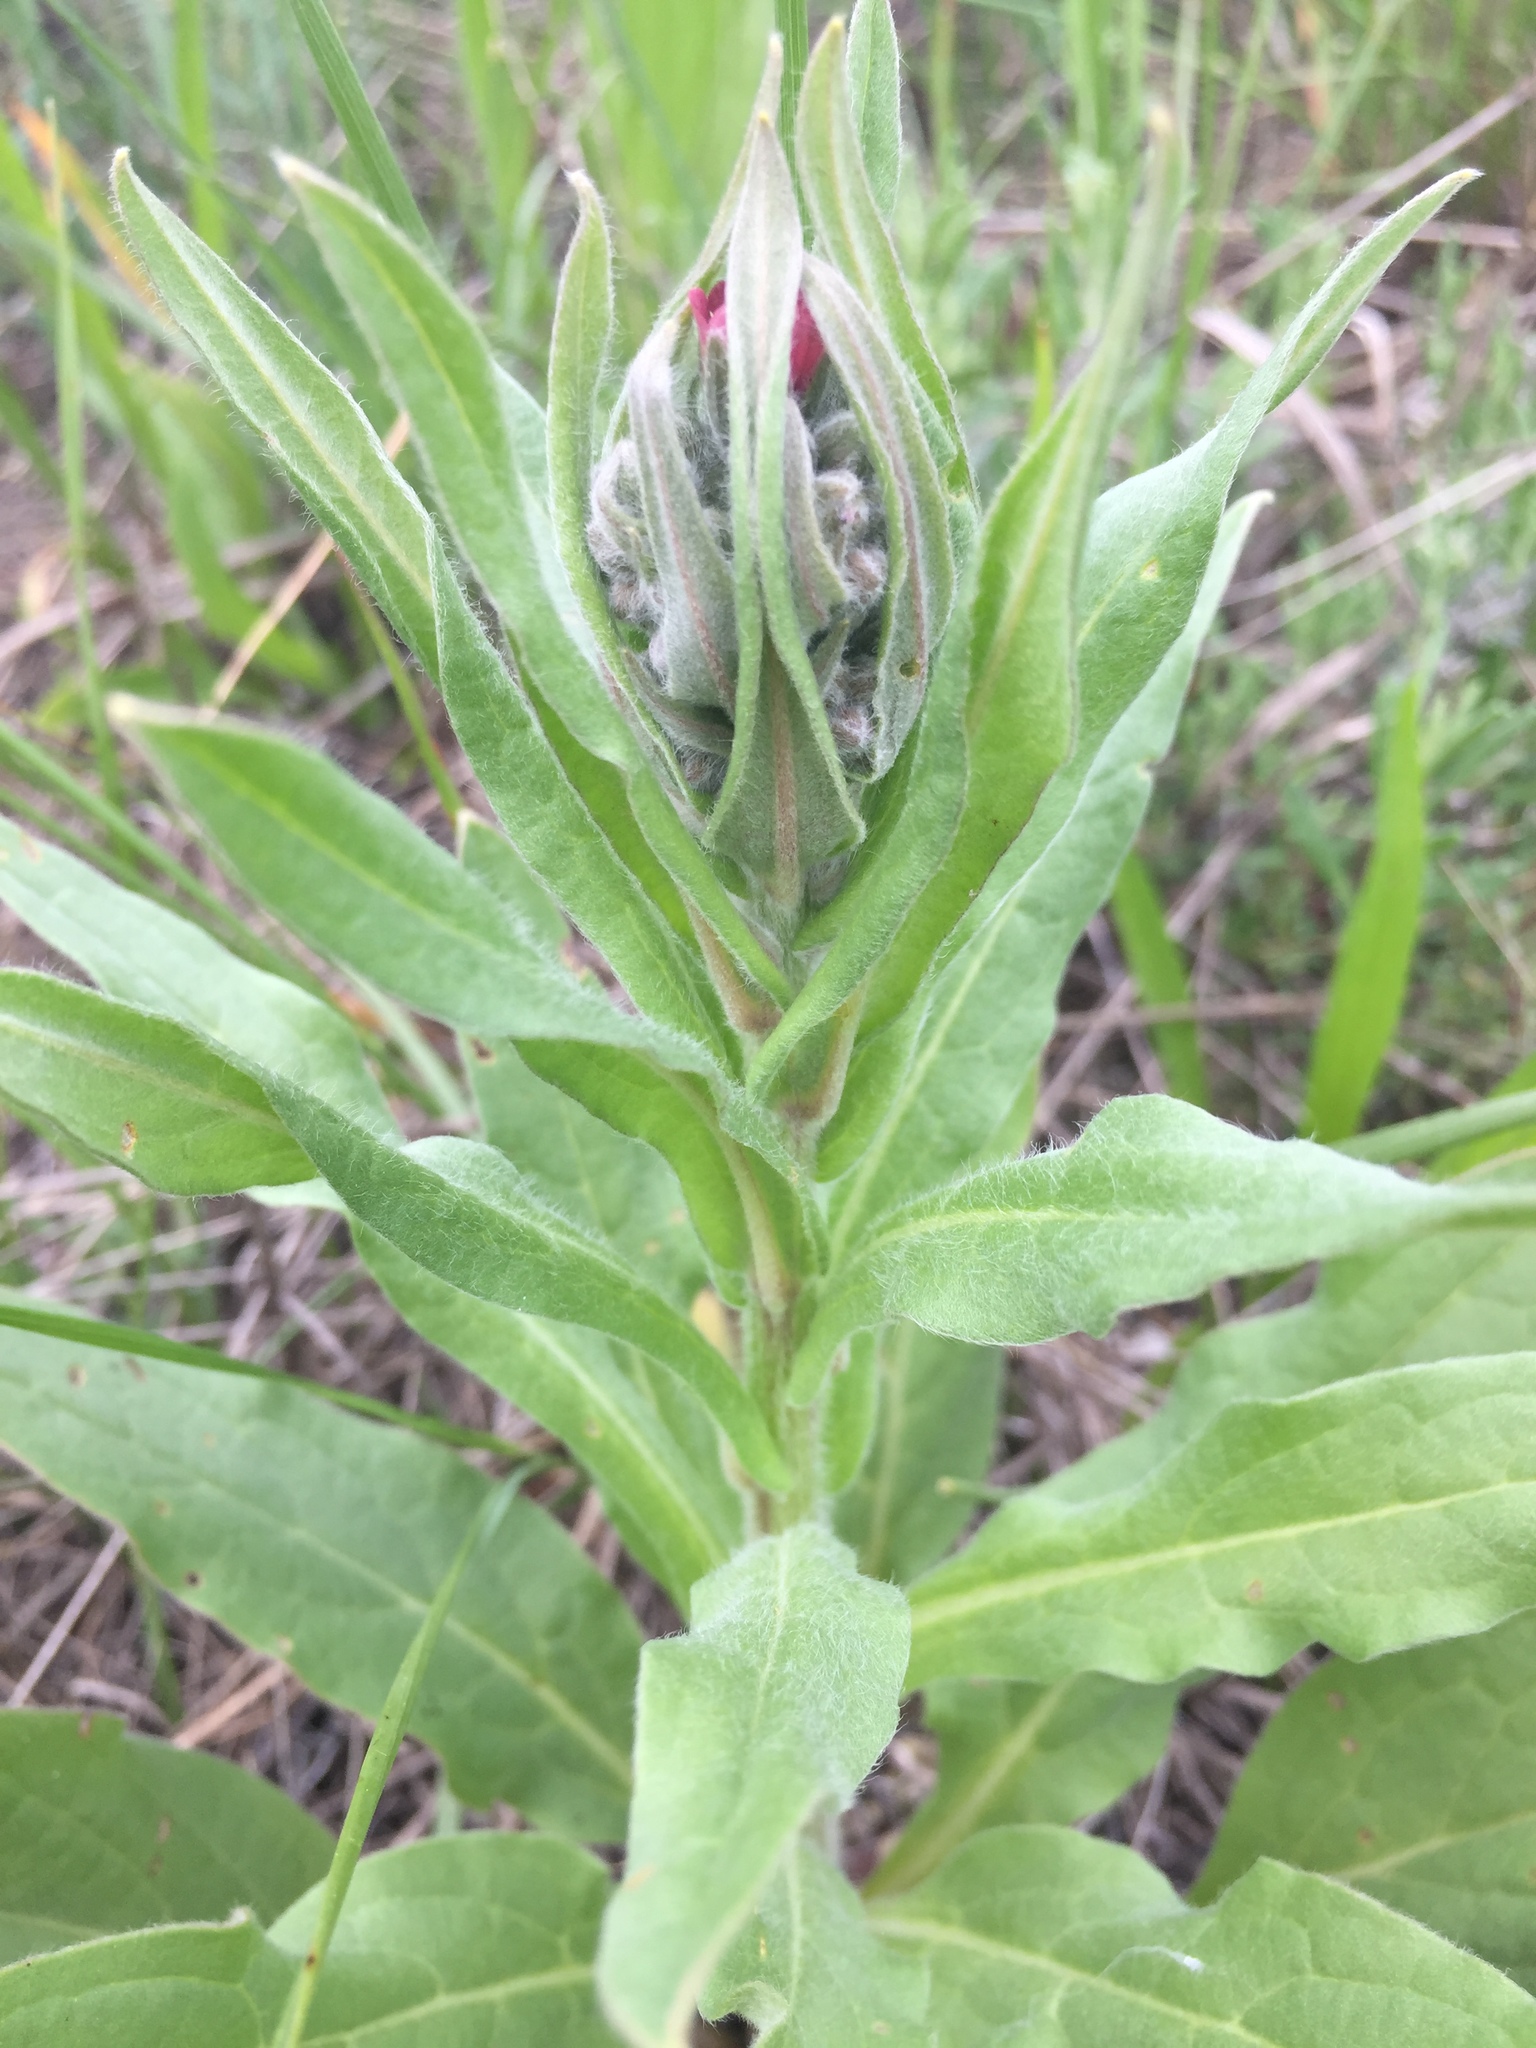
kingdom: Plantae
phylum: Tracheophyta
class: Magnoliopsida
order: Boraginales
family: Boraginaceae
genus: Cynoglossum
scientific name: Cynoglossum officinale
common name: Hound's-tongue
